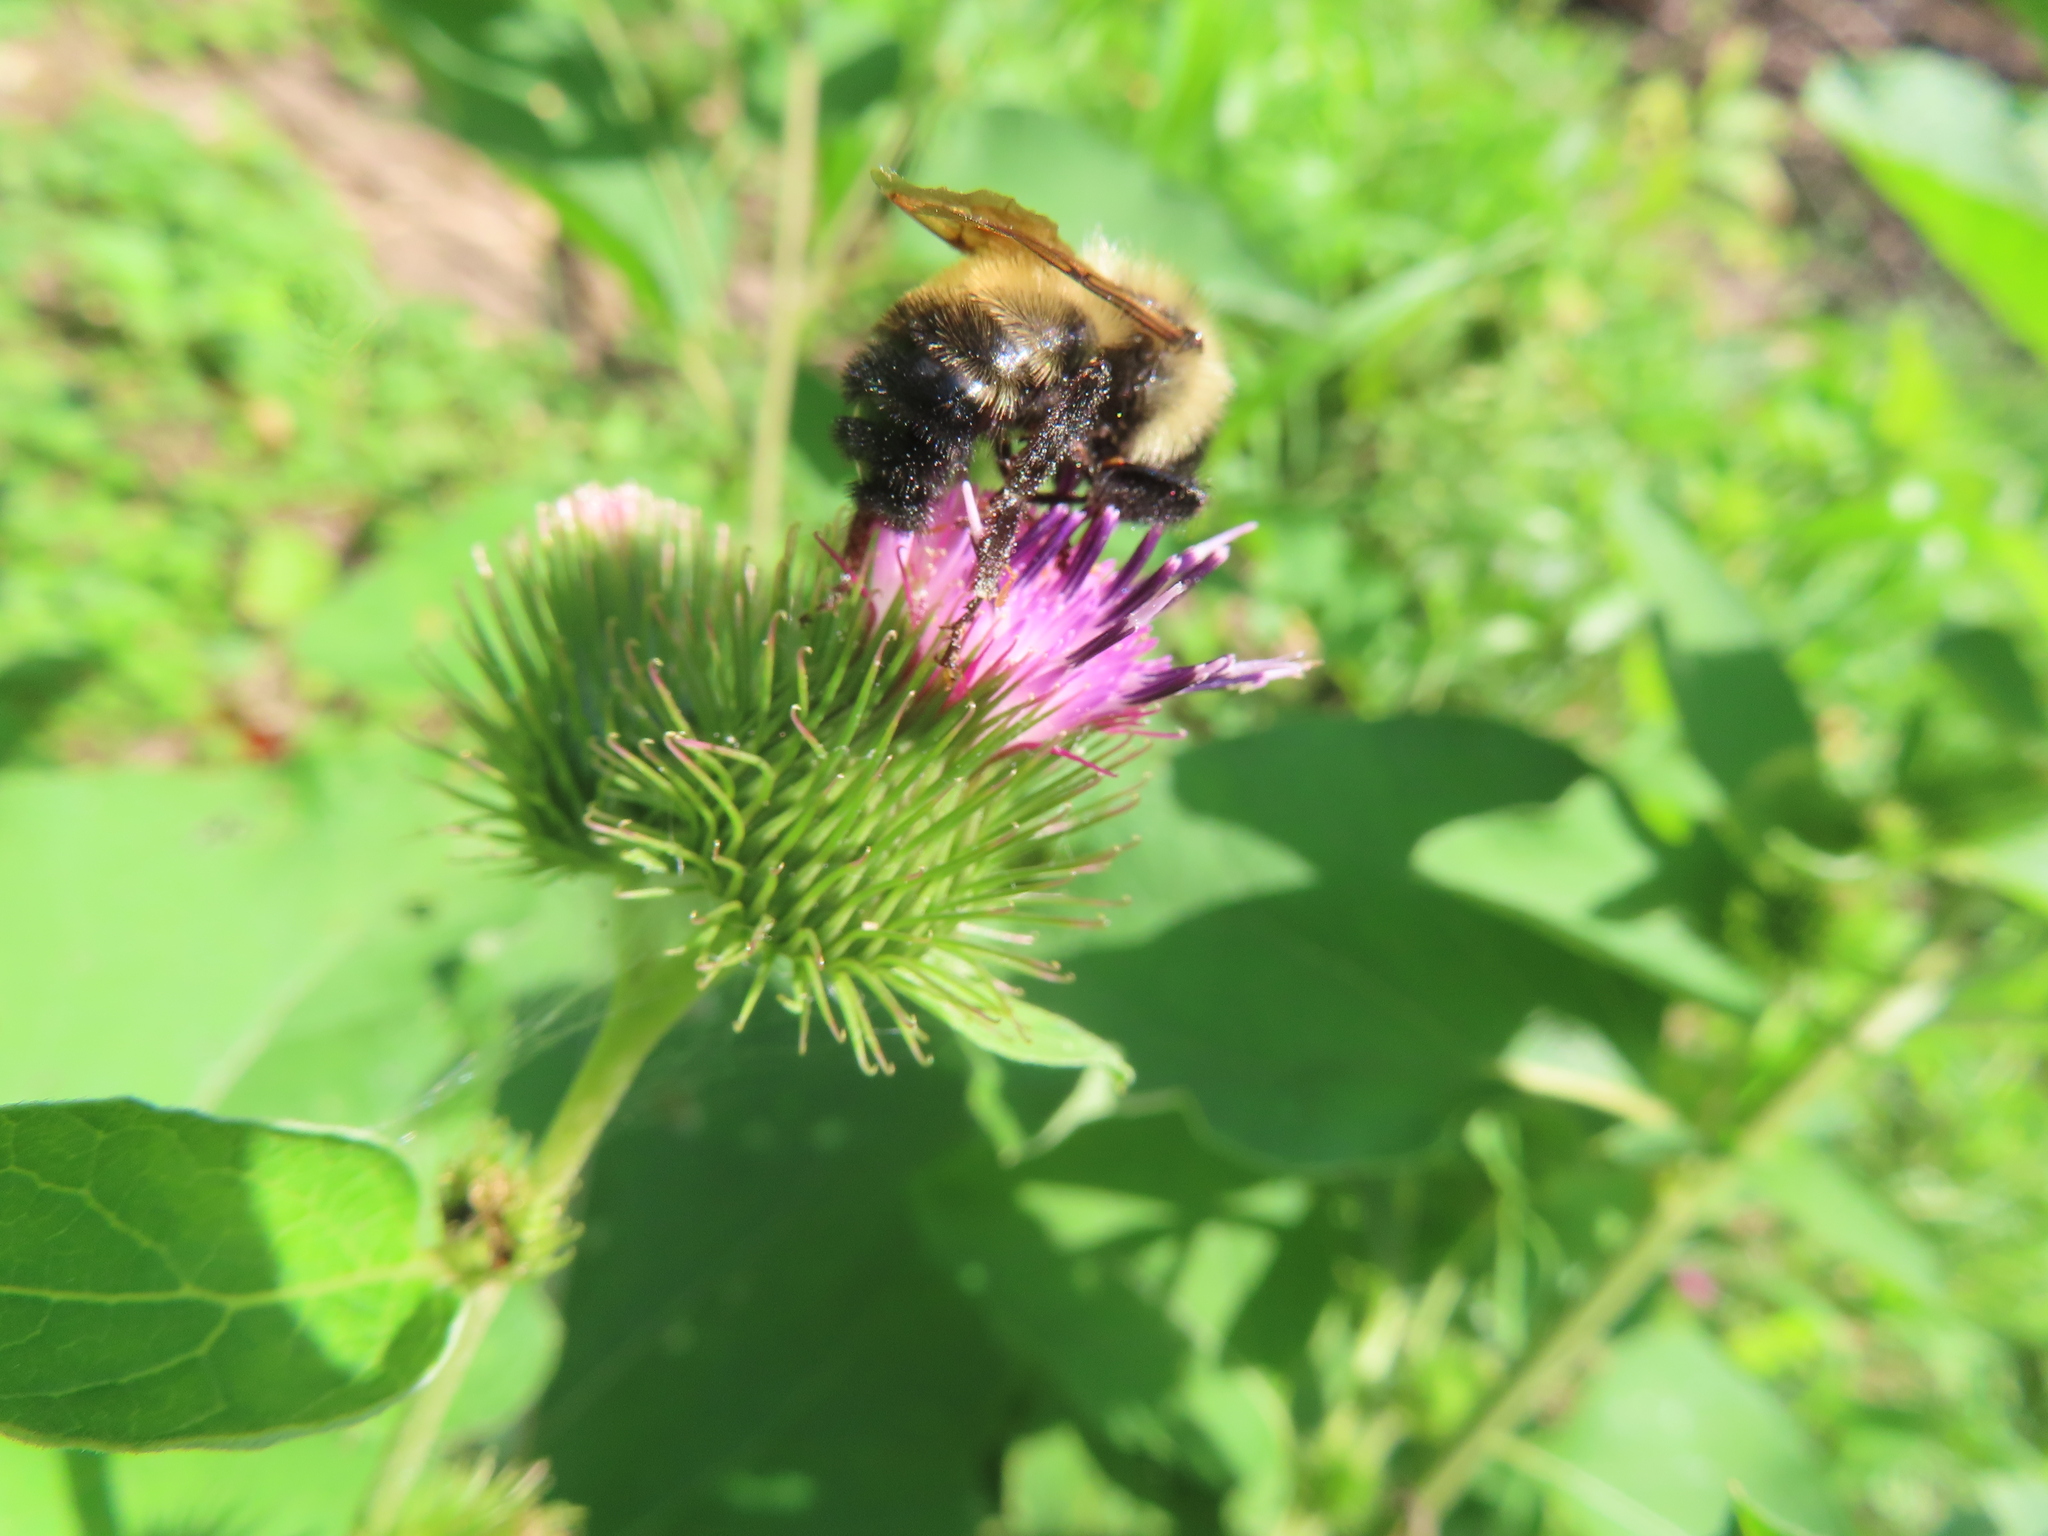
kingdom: Animalia
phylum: Arthropoda
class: Insecta
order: Hymenoptera
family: Apidae
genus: Bombus
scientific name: Bombus citrinus
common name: Lemon cuckoo bumble bee
